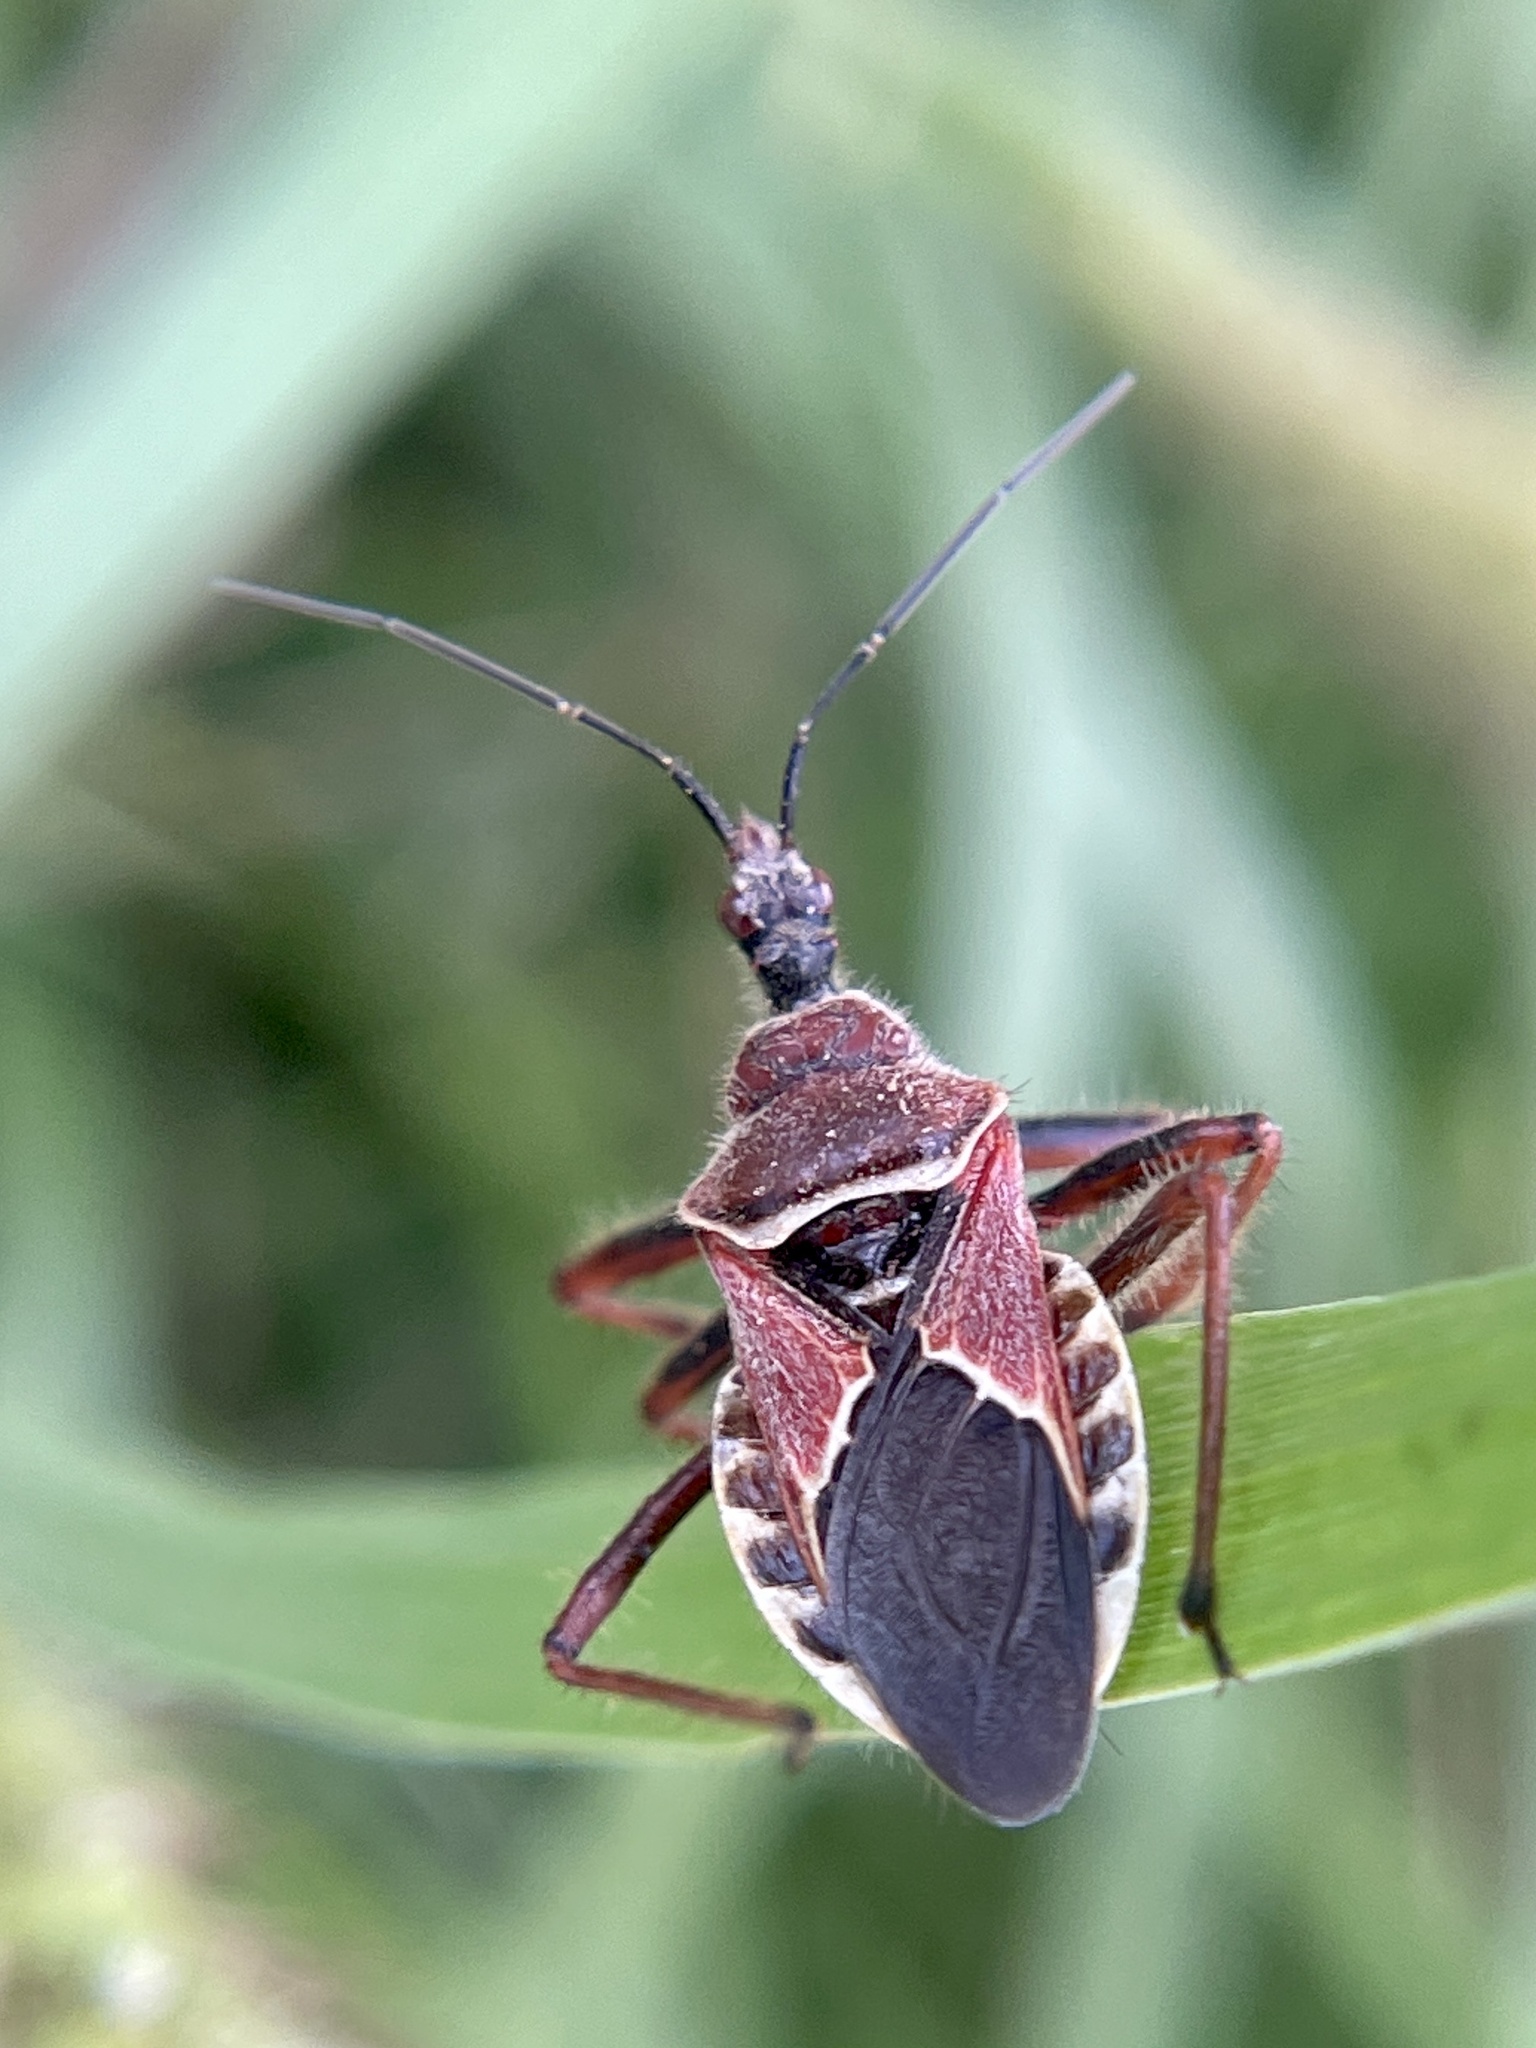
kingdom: Animalia
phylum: Arthropoda
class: Insecta
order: Hemiptera
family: Reduviidae
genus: Apiomerus
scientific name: Apiomerus spissipes
